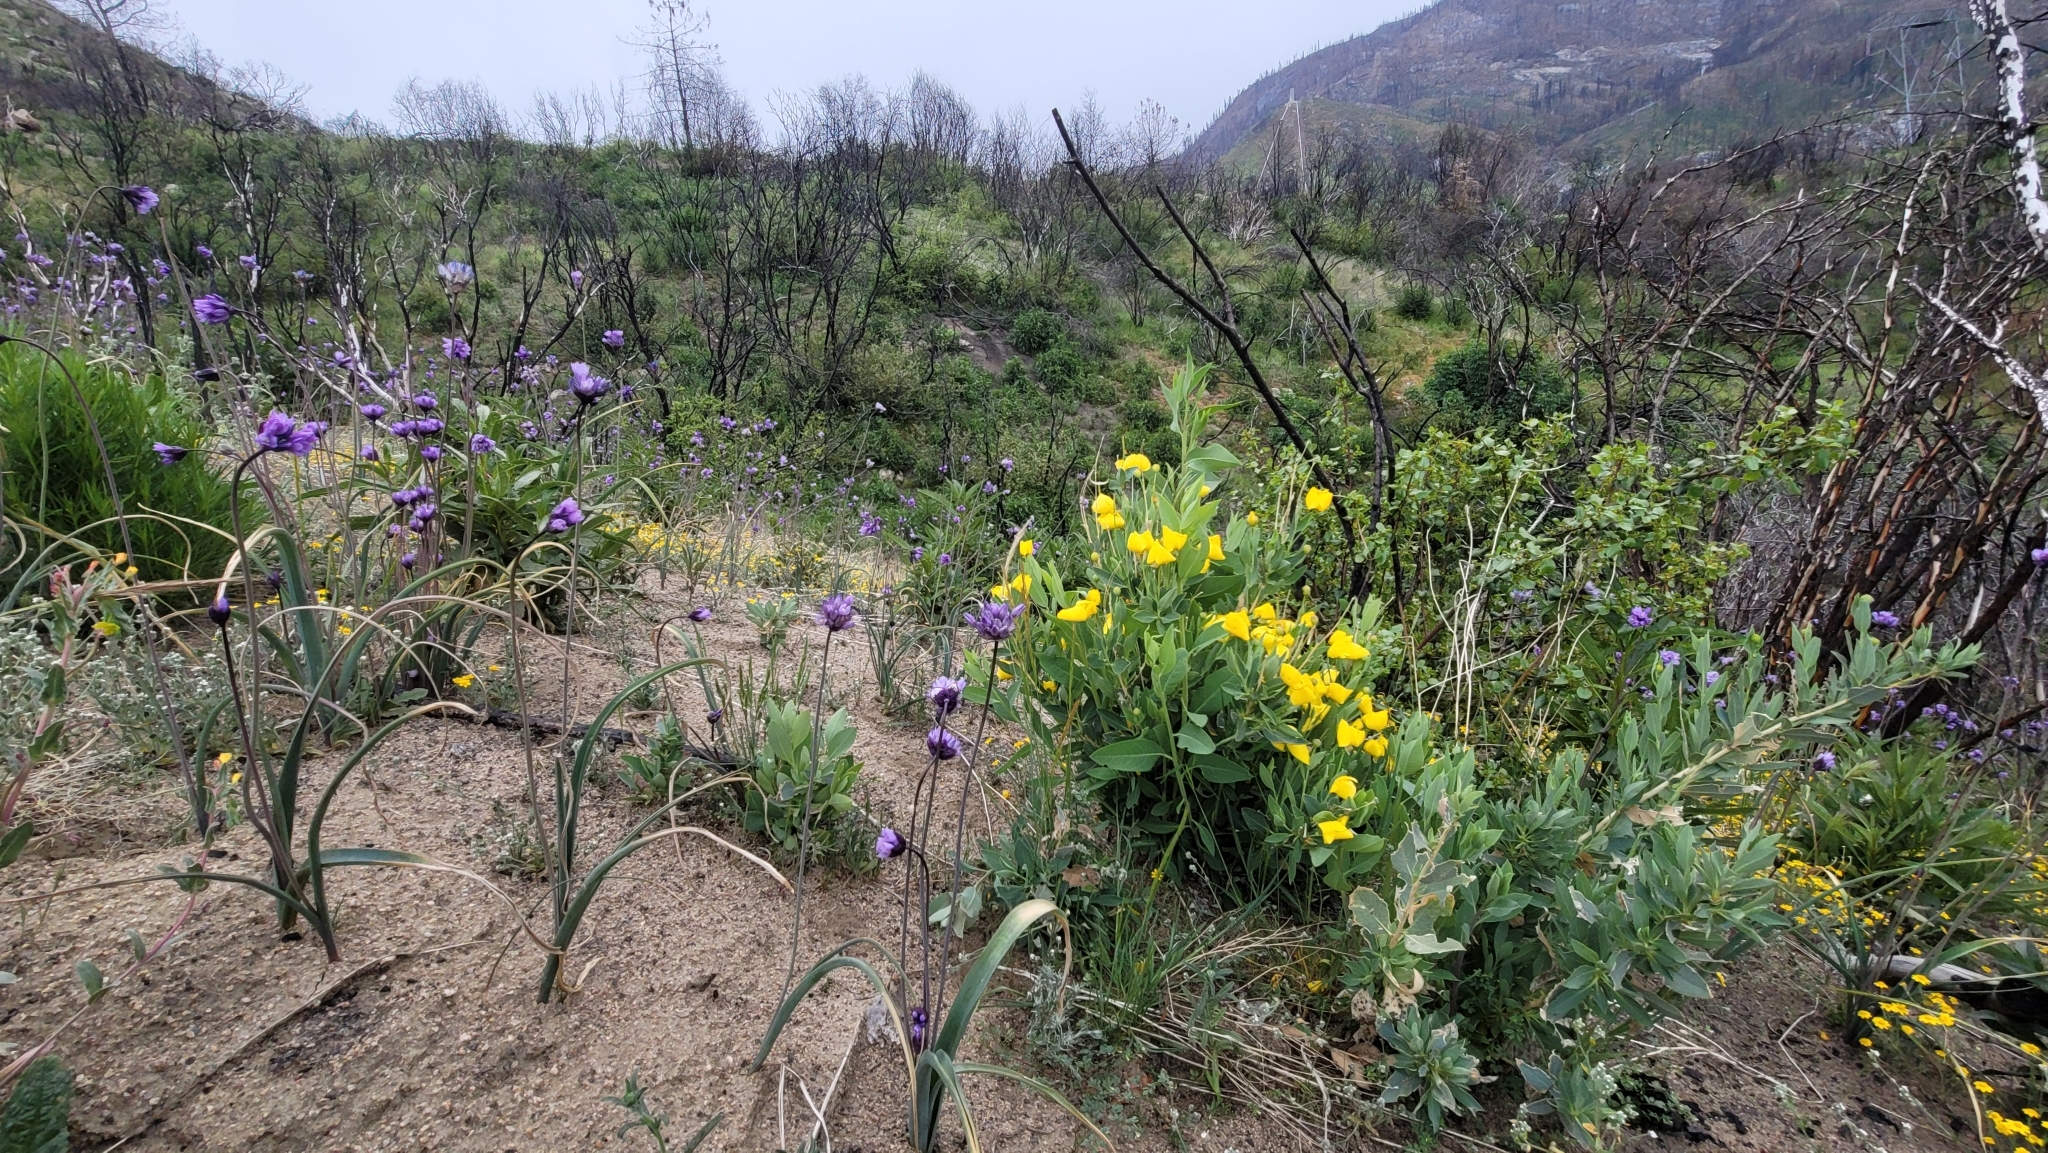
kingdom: Plantae
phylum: Tracheophyta
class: Magnoliopsida
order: Ranunculales
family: Papaveraceae
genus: Dendromecon
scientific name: Dendromecon rigida
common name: Tree poppy
